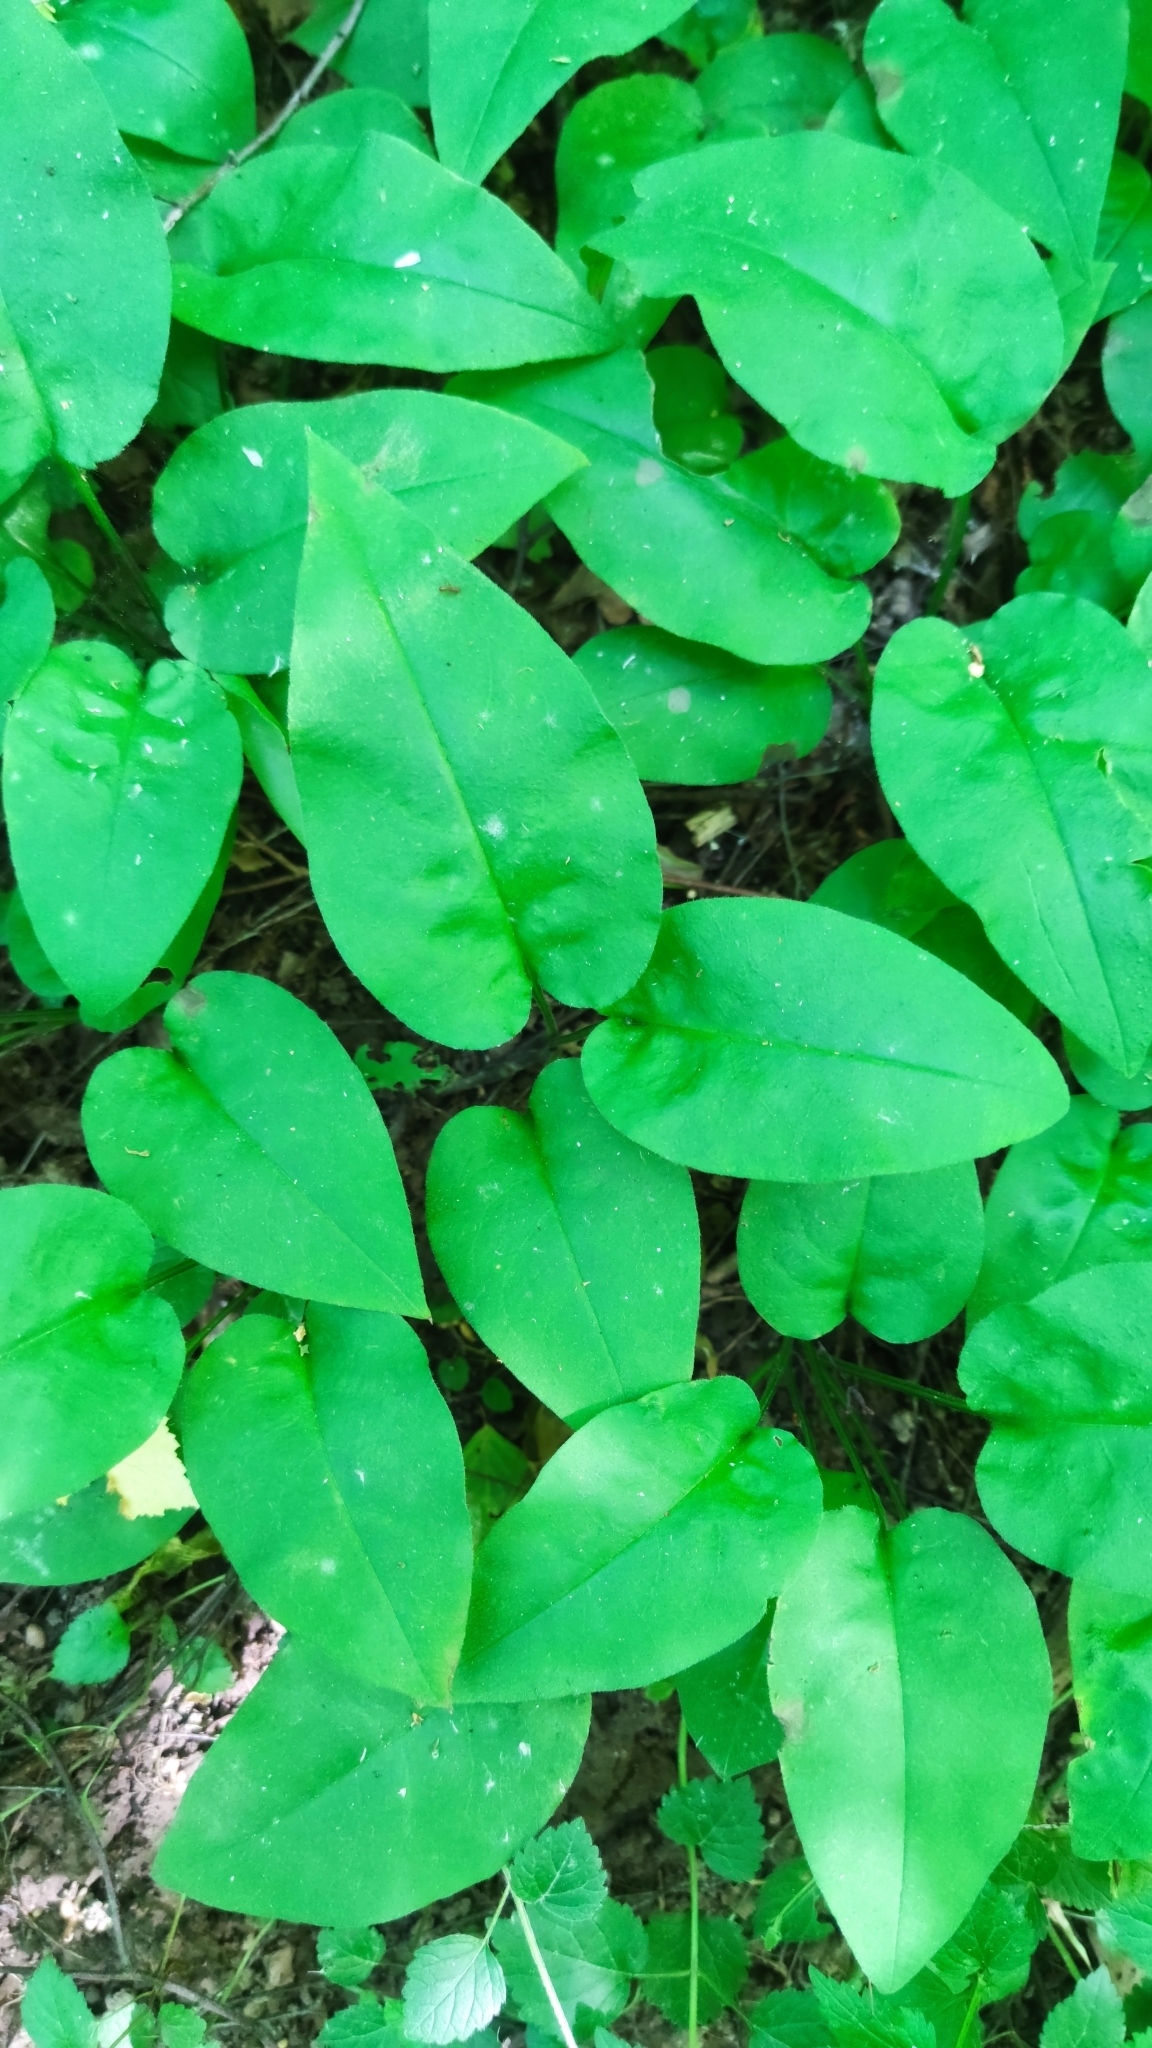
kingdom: Plantae
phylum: Tracheophyta
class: Magnoliopsida
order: Boraginales
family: Boraginaceae
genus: Pulmonaria
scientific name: Pulmonaria obscura
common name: Suffolk lungwort
